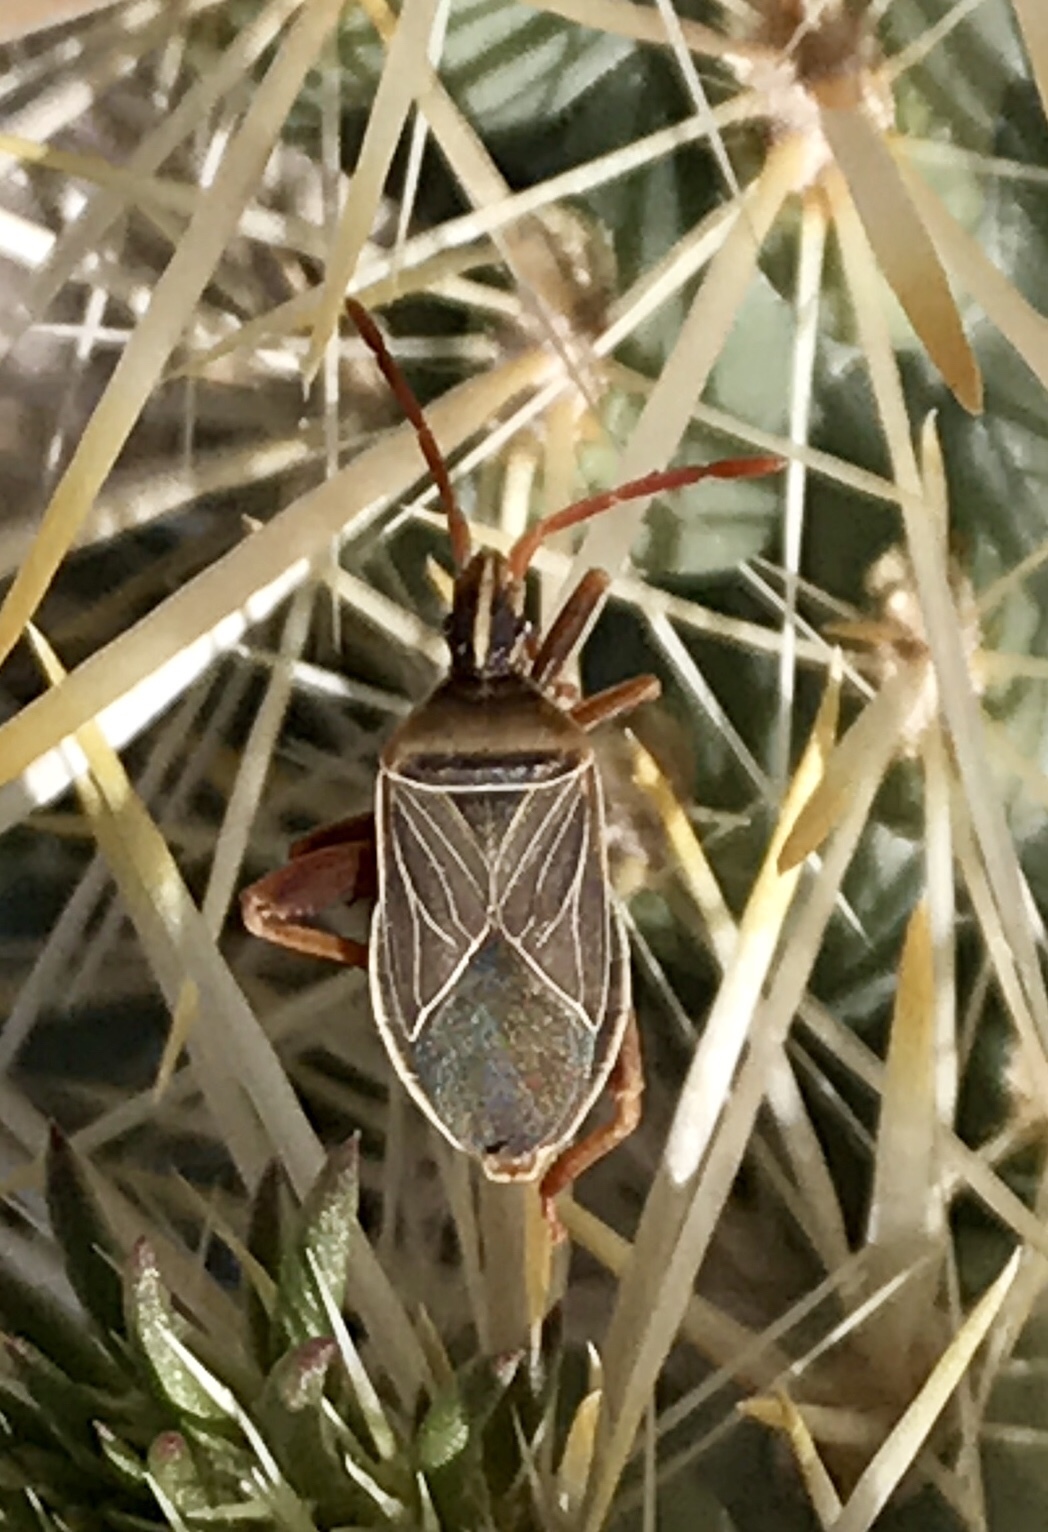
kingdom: Animalia
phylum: Arthropoda
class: Insecta
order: Hemiptera
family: Coreidae
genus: Chelinidea
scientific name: Chelinidea vittiger
